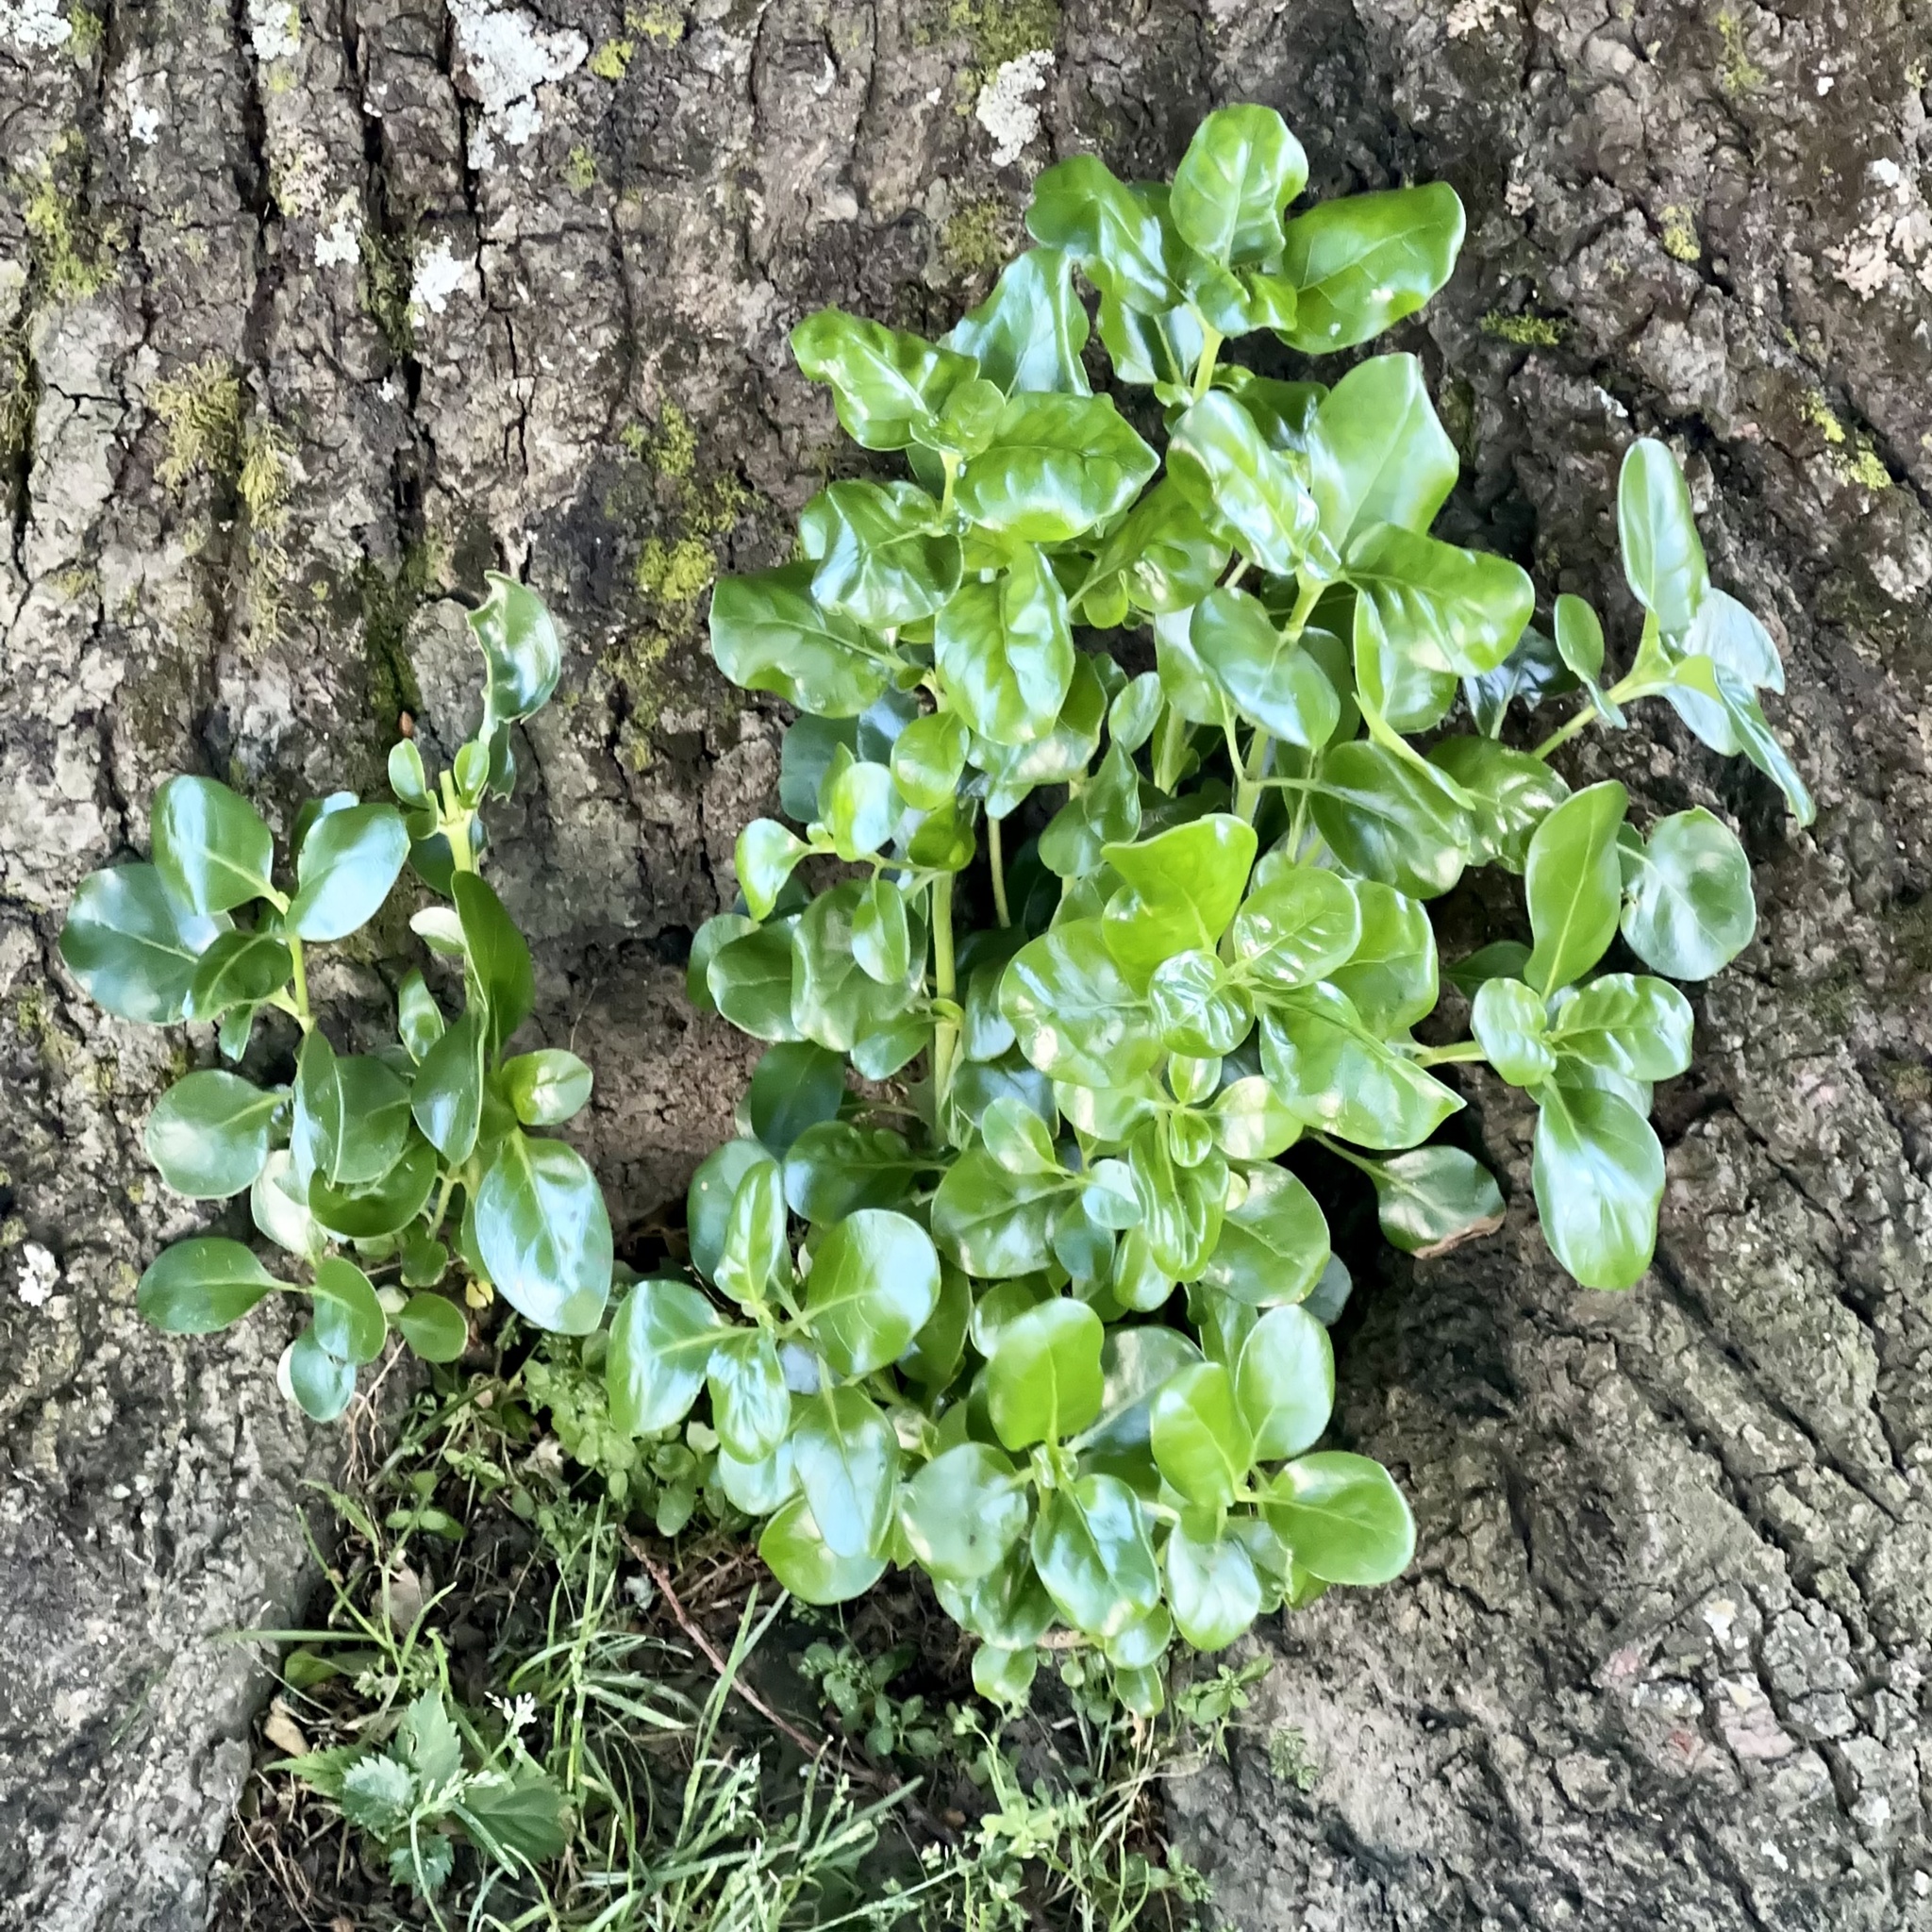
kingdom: Plantae
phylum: Tracheophyta
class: Magnoliopsida
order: Gentianales
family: Rubiaceae
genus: Coprosma
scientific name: Coprosma repens
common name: Tree bedstraw
